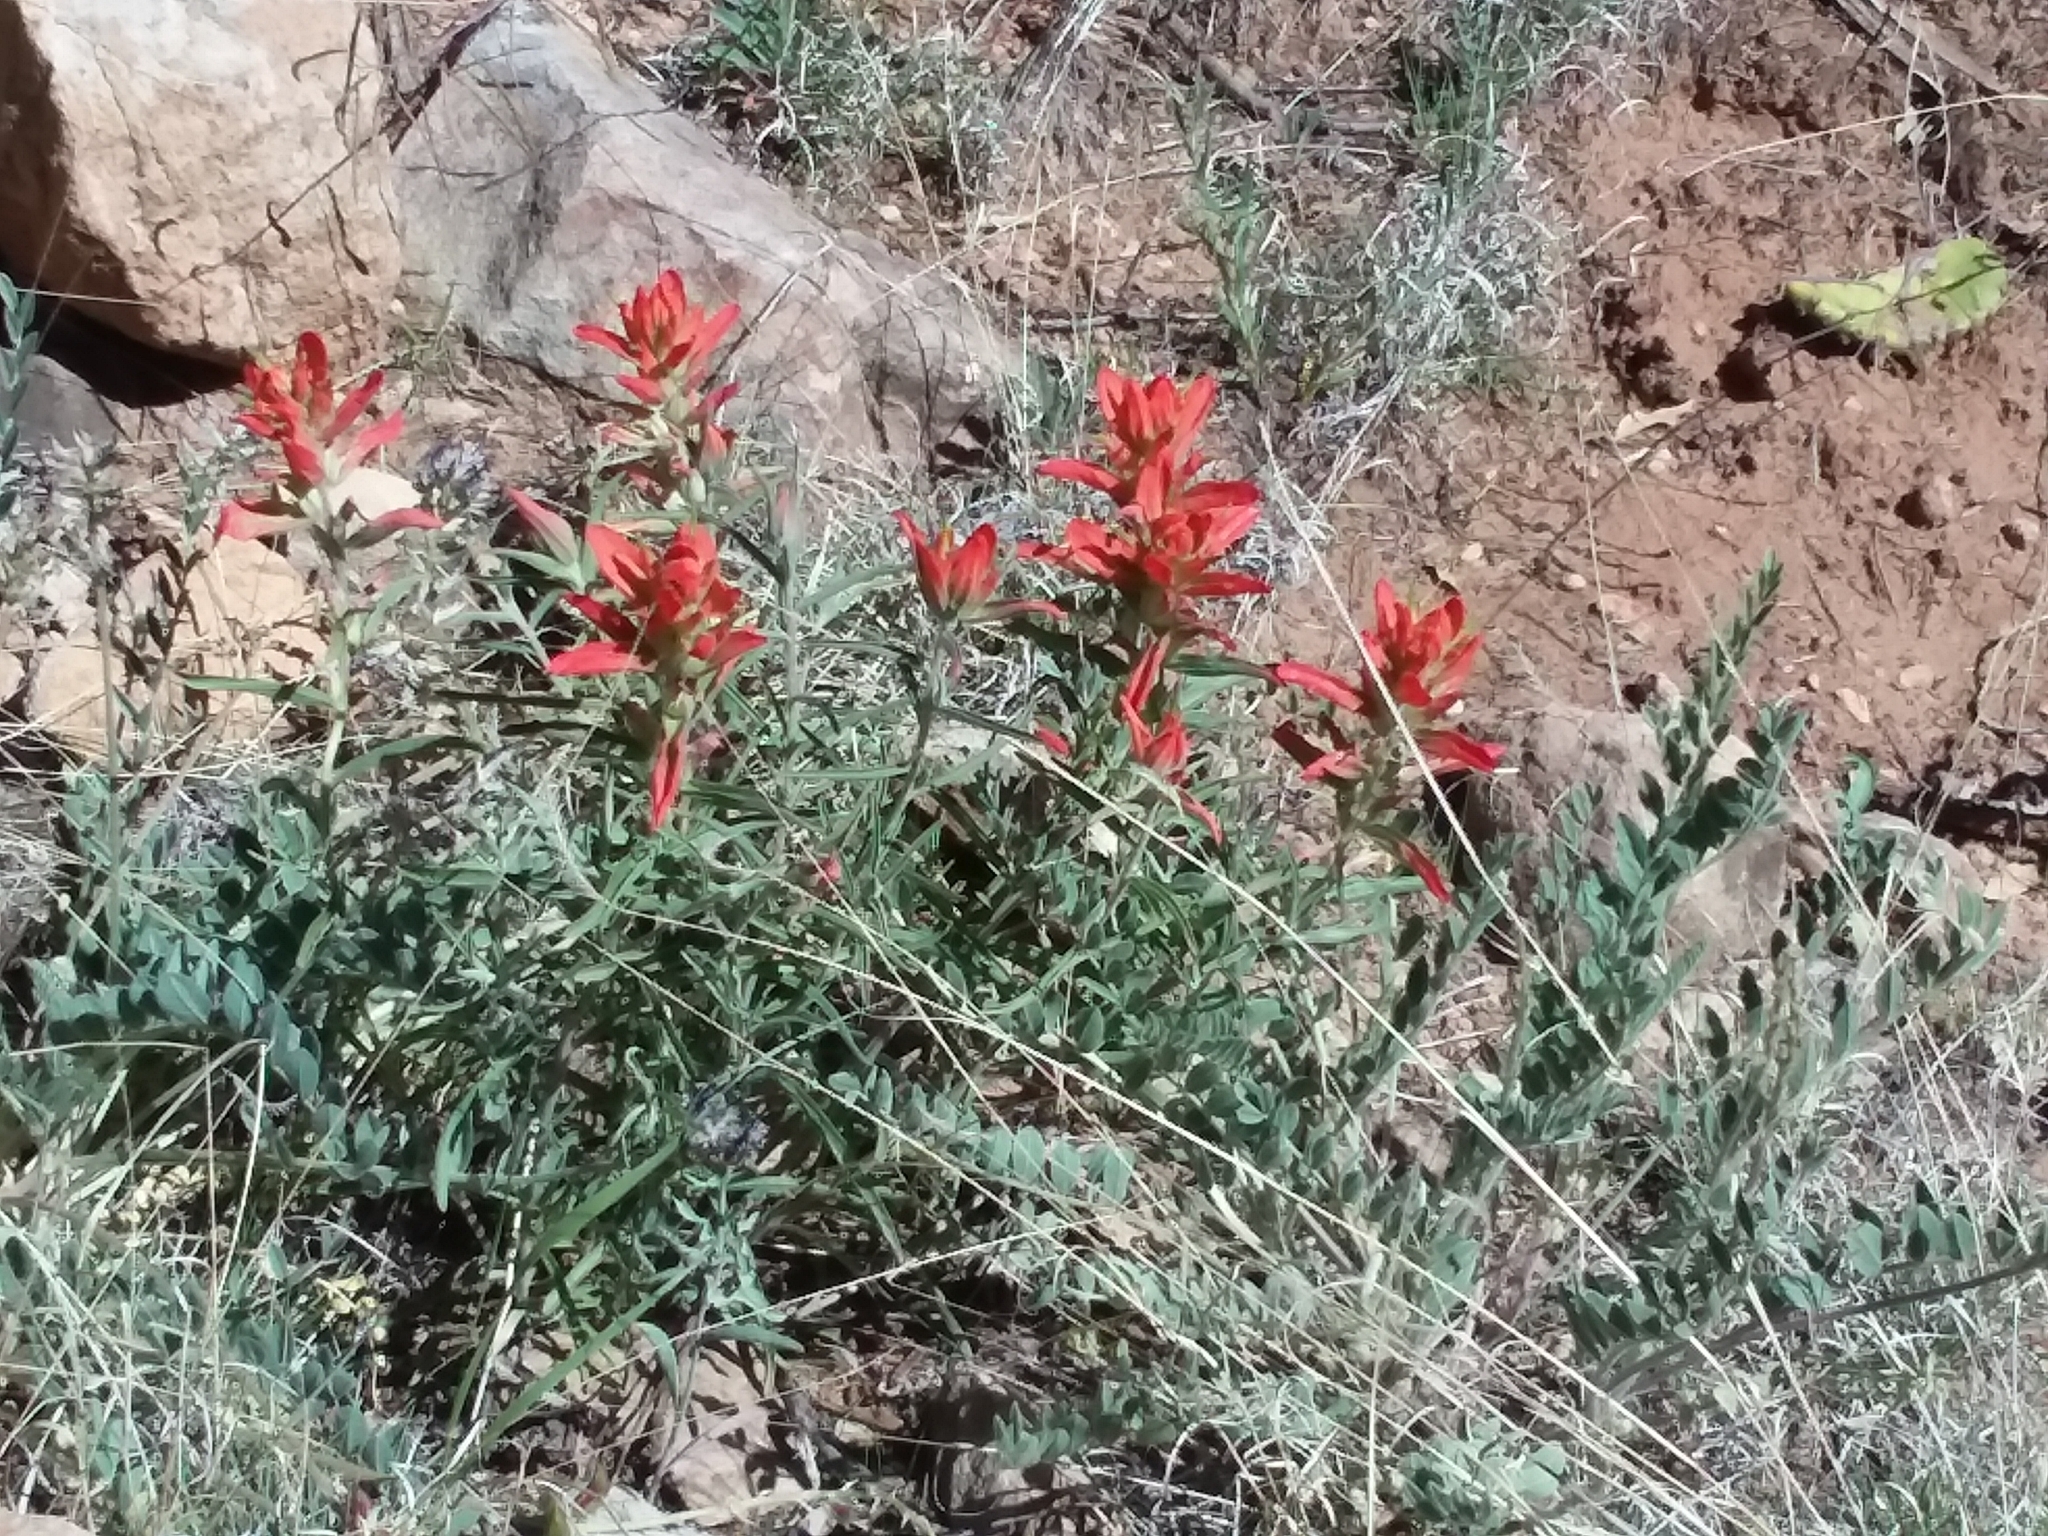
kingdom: Plantae
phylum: Tracheophyta
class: Magnoliopsida
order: Lamiales
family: Orobanchaceae
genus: Castilleja
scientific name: Castilleja integra
